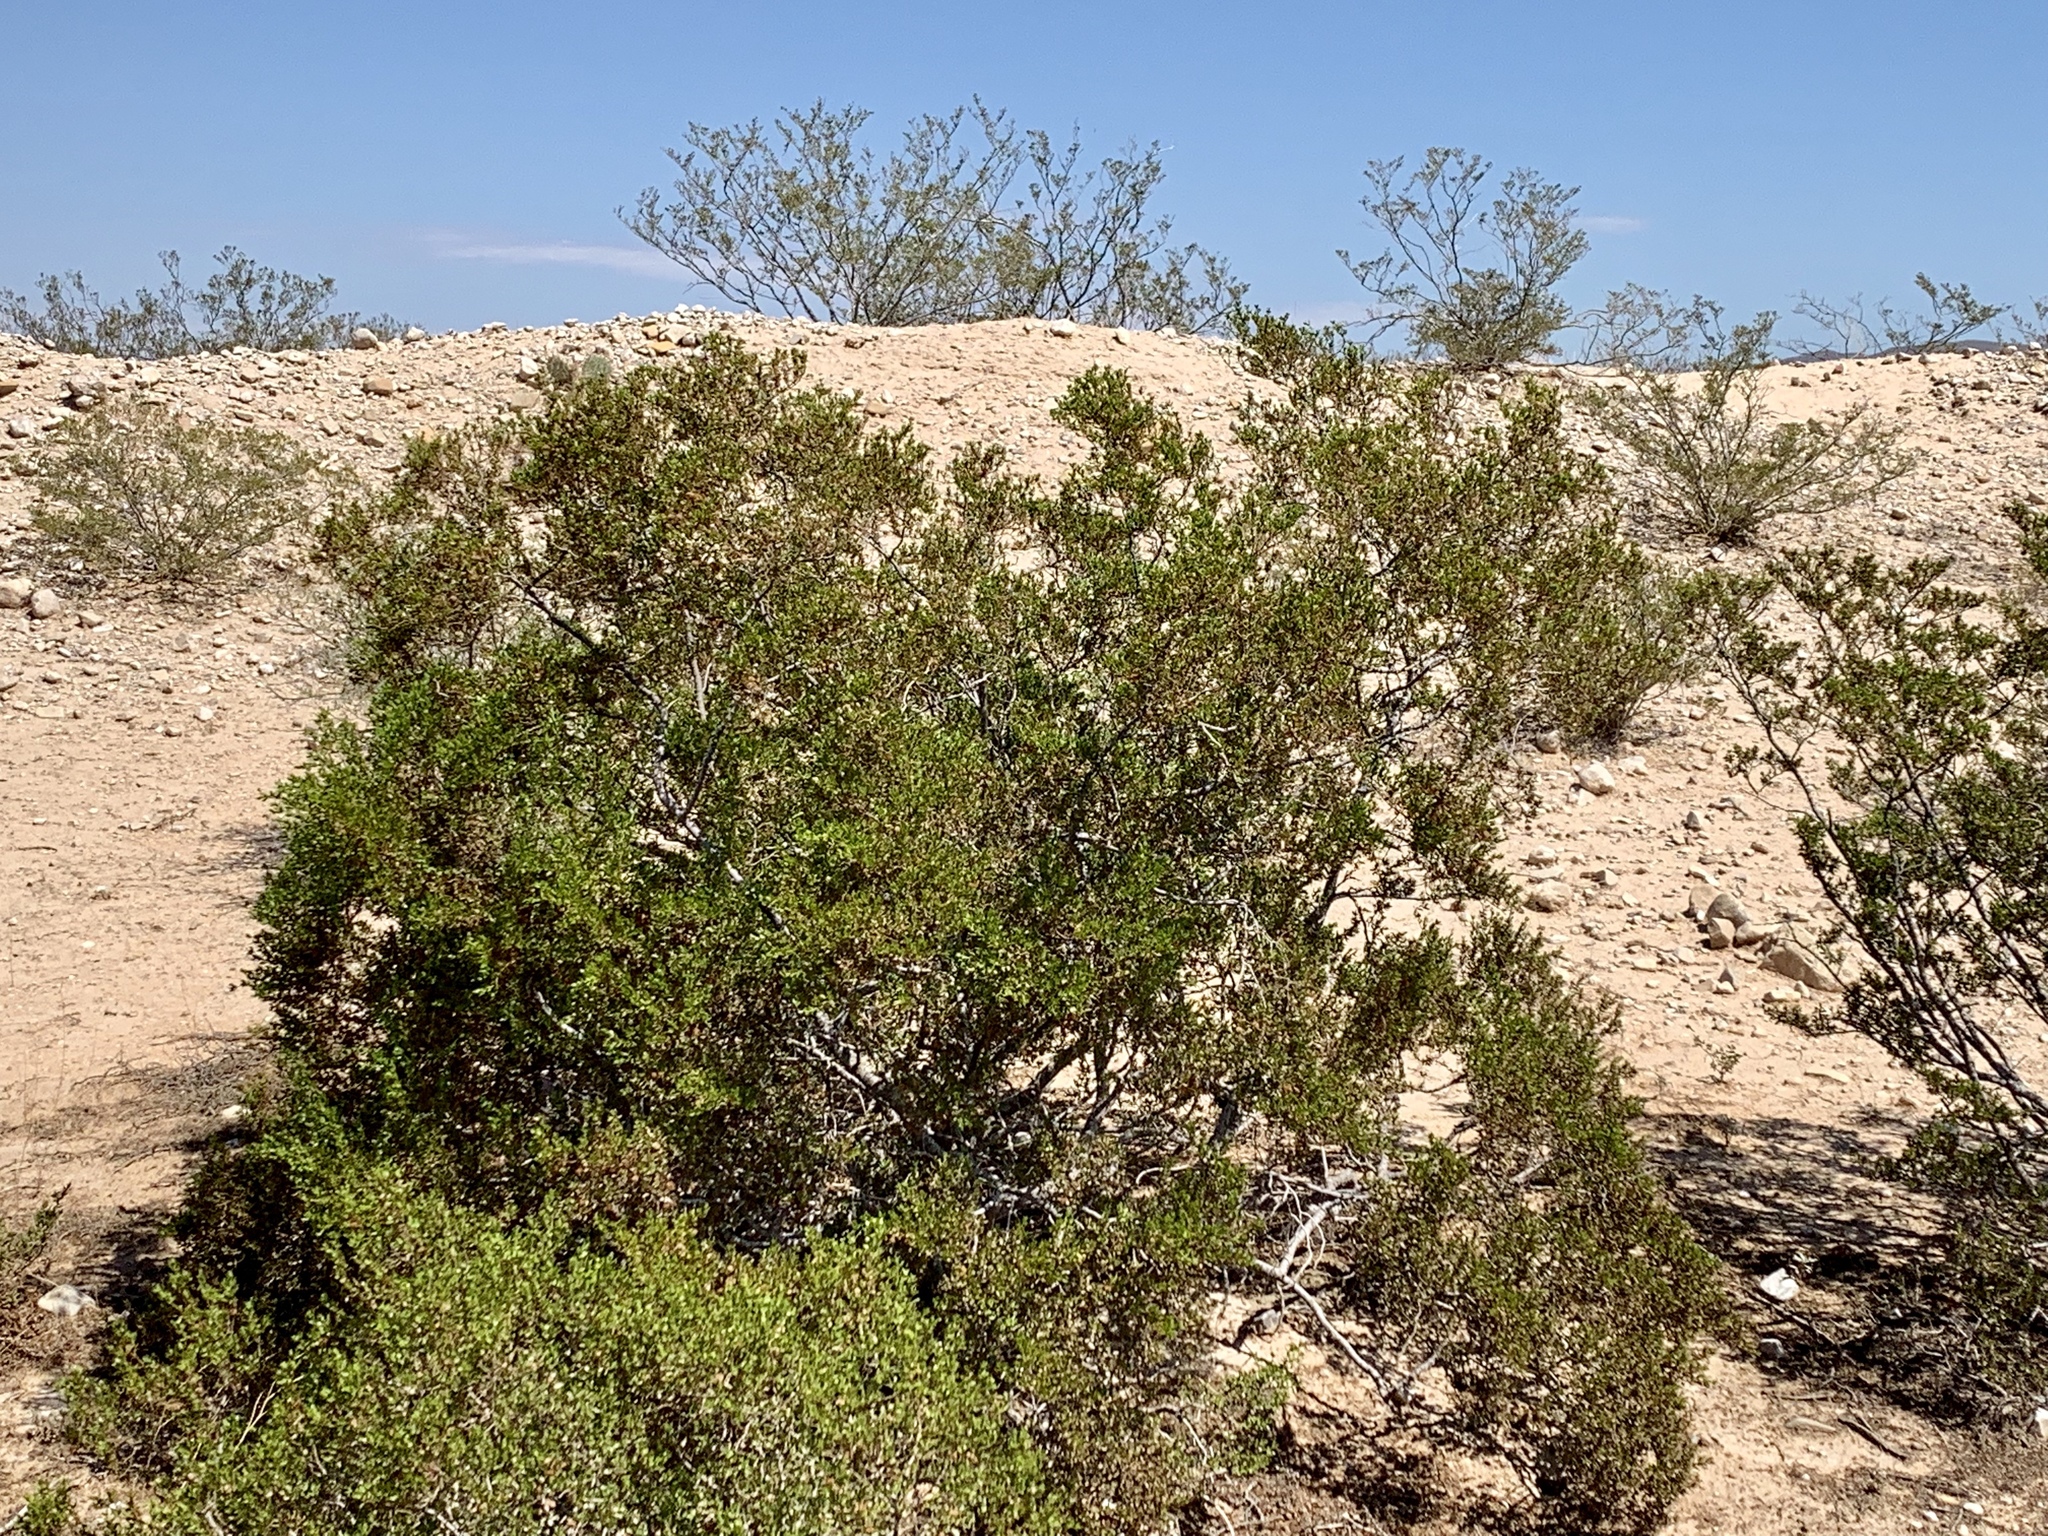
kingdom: Plantae
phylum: Tracheophyta
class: Magnoliopsida
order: Zygophyllales
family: Zygophyllaceae
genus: Larrea
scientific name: Larrea tridentata
